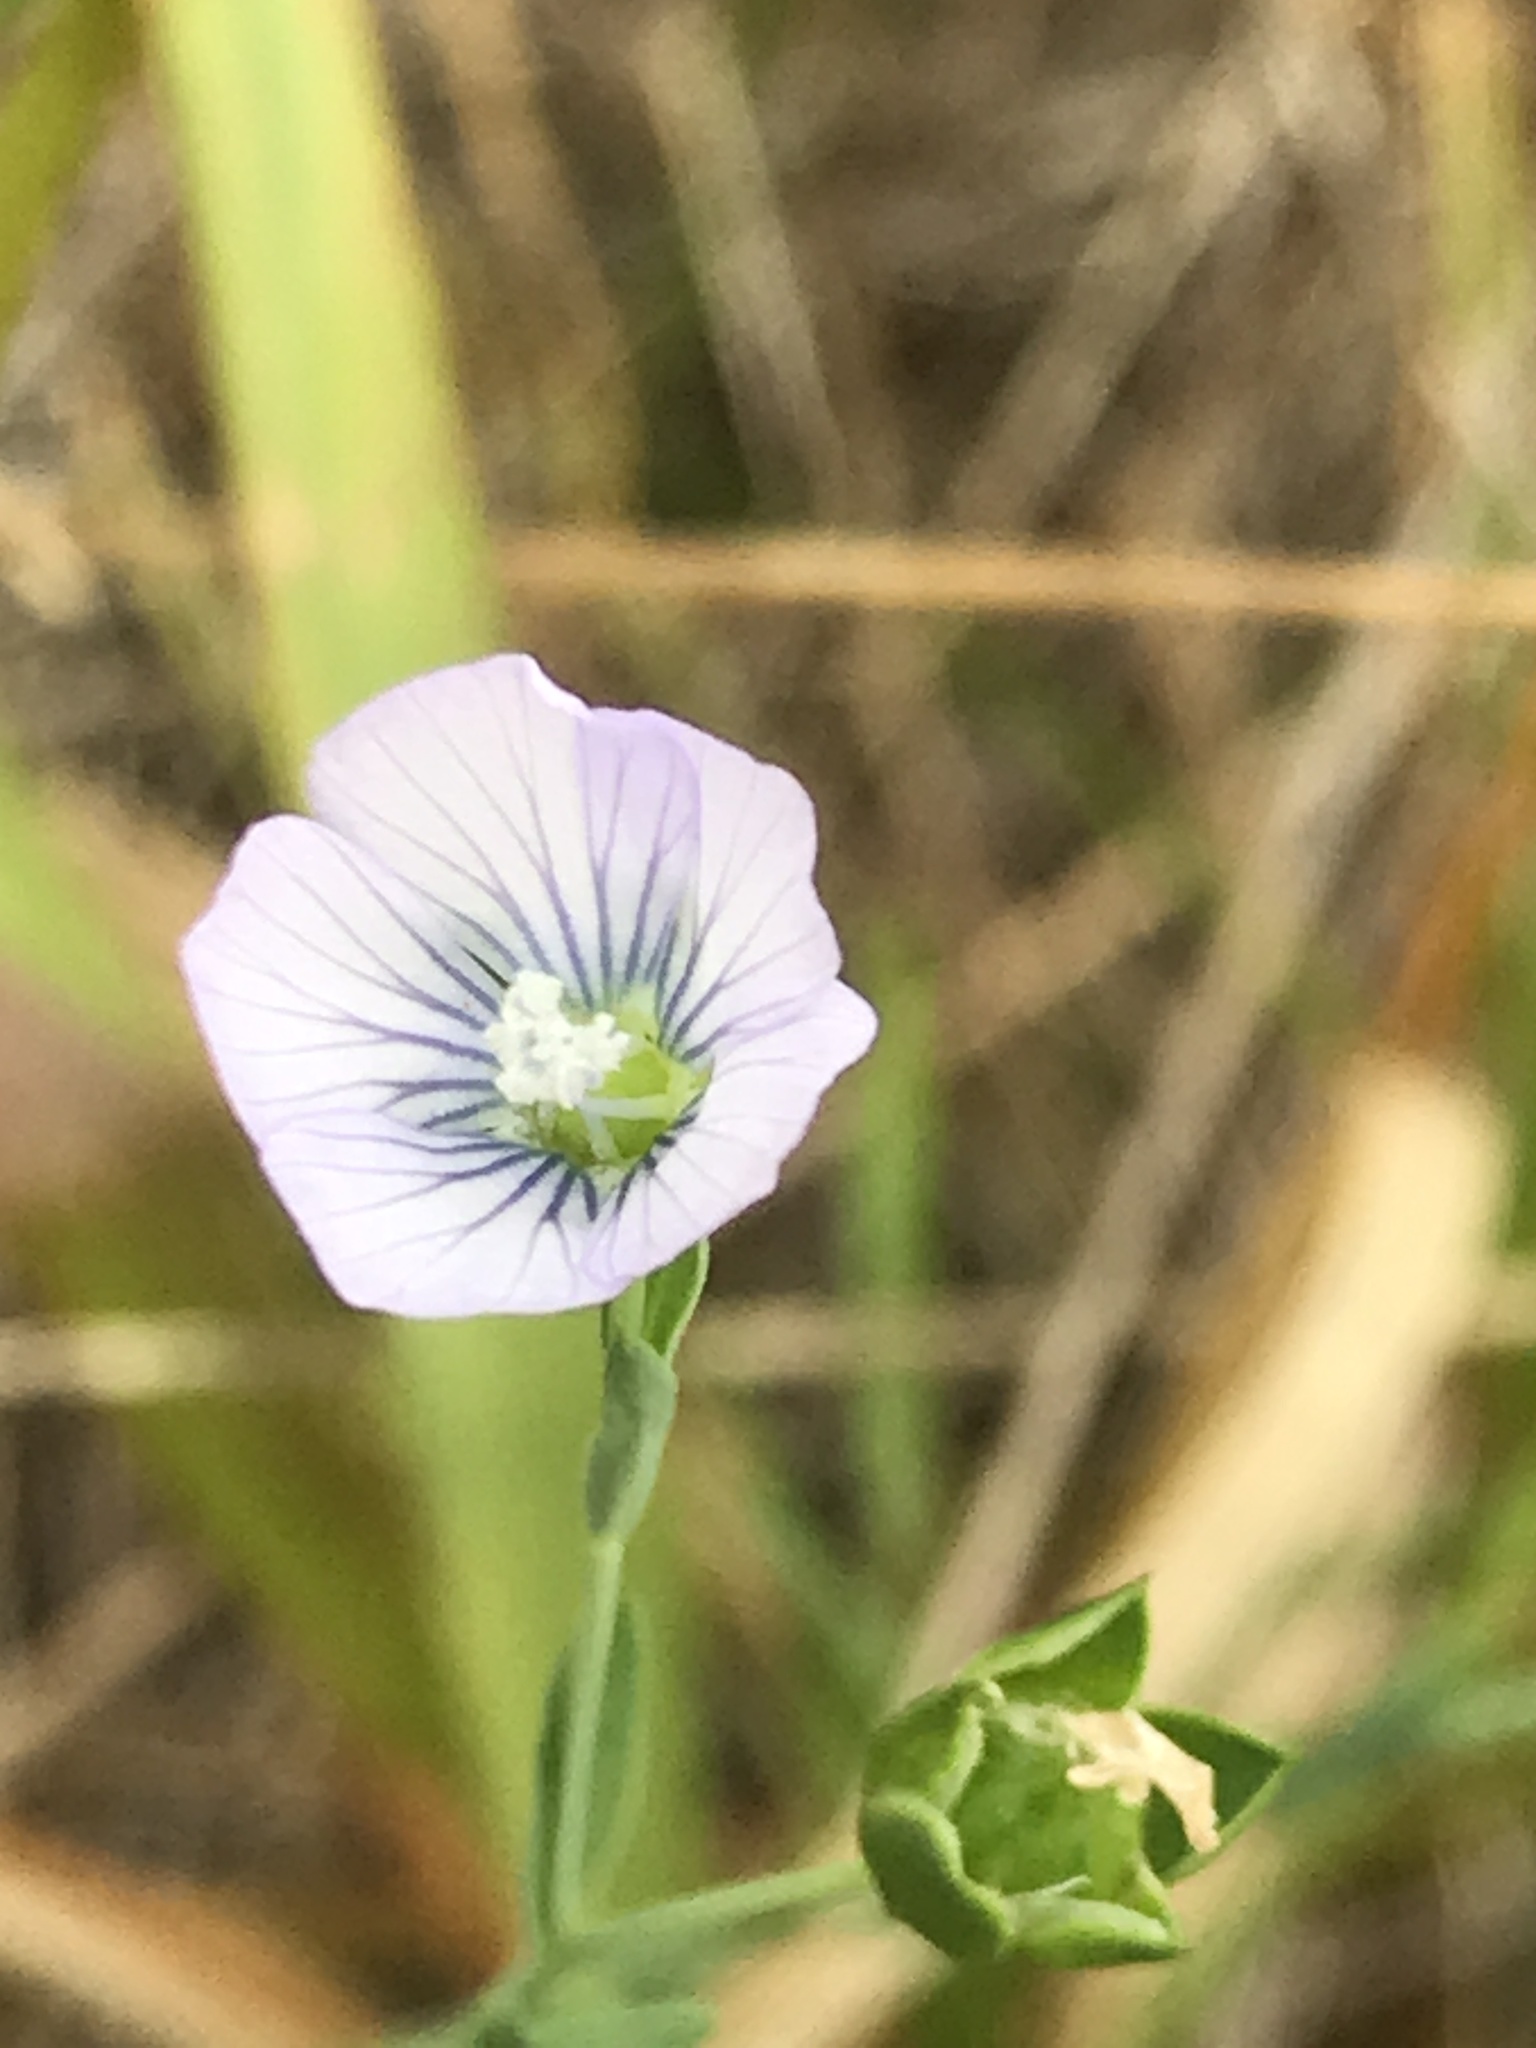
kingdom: Plantae
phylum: Tracheophyta
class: Magnoliopsida
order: Malpighiales
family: Linaceae
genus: Linum
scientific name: Linum bienne
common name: Pale flax
